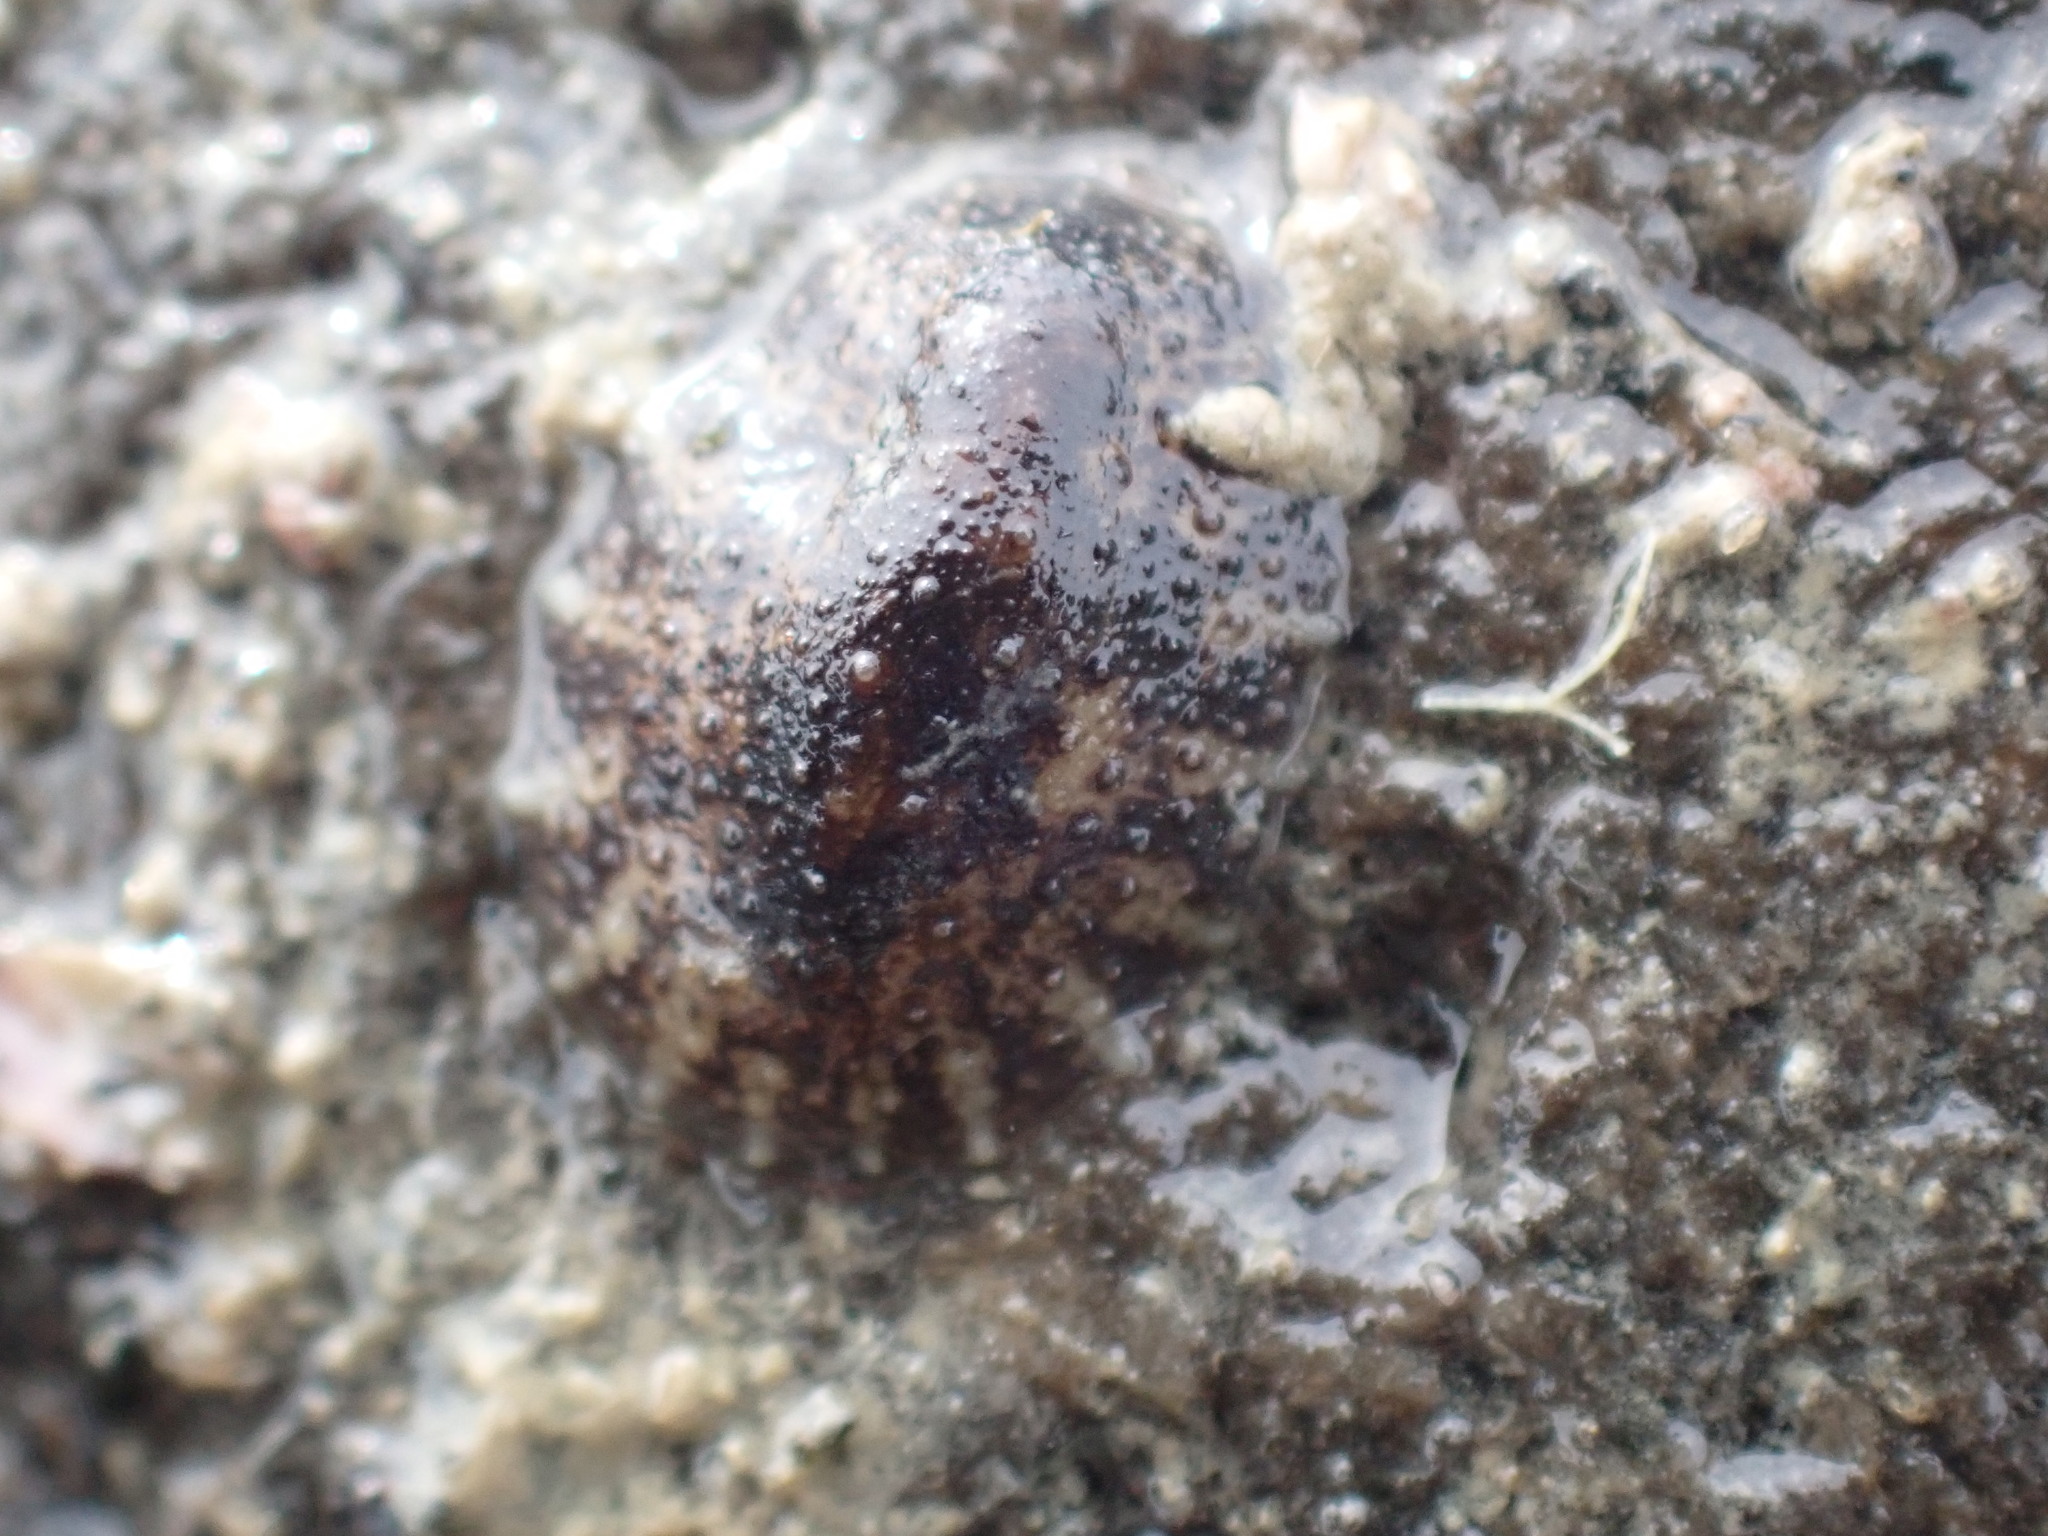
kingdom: Animalia
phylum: Mollusca
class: Gastropoda
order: Systellommatophora
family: Onchidiidae
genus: Onchidella
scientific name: Onchidella nigricans
